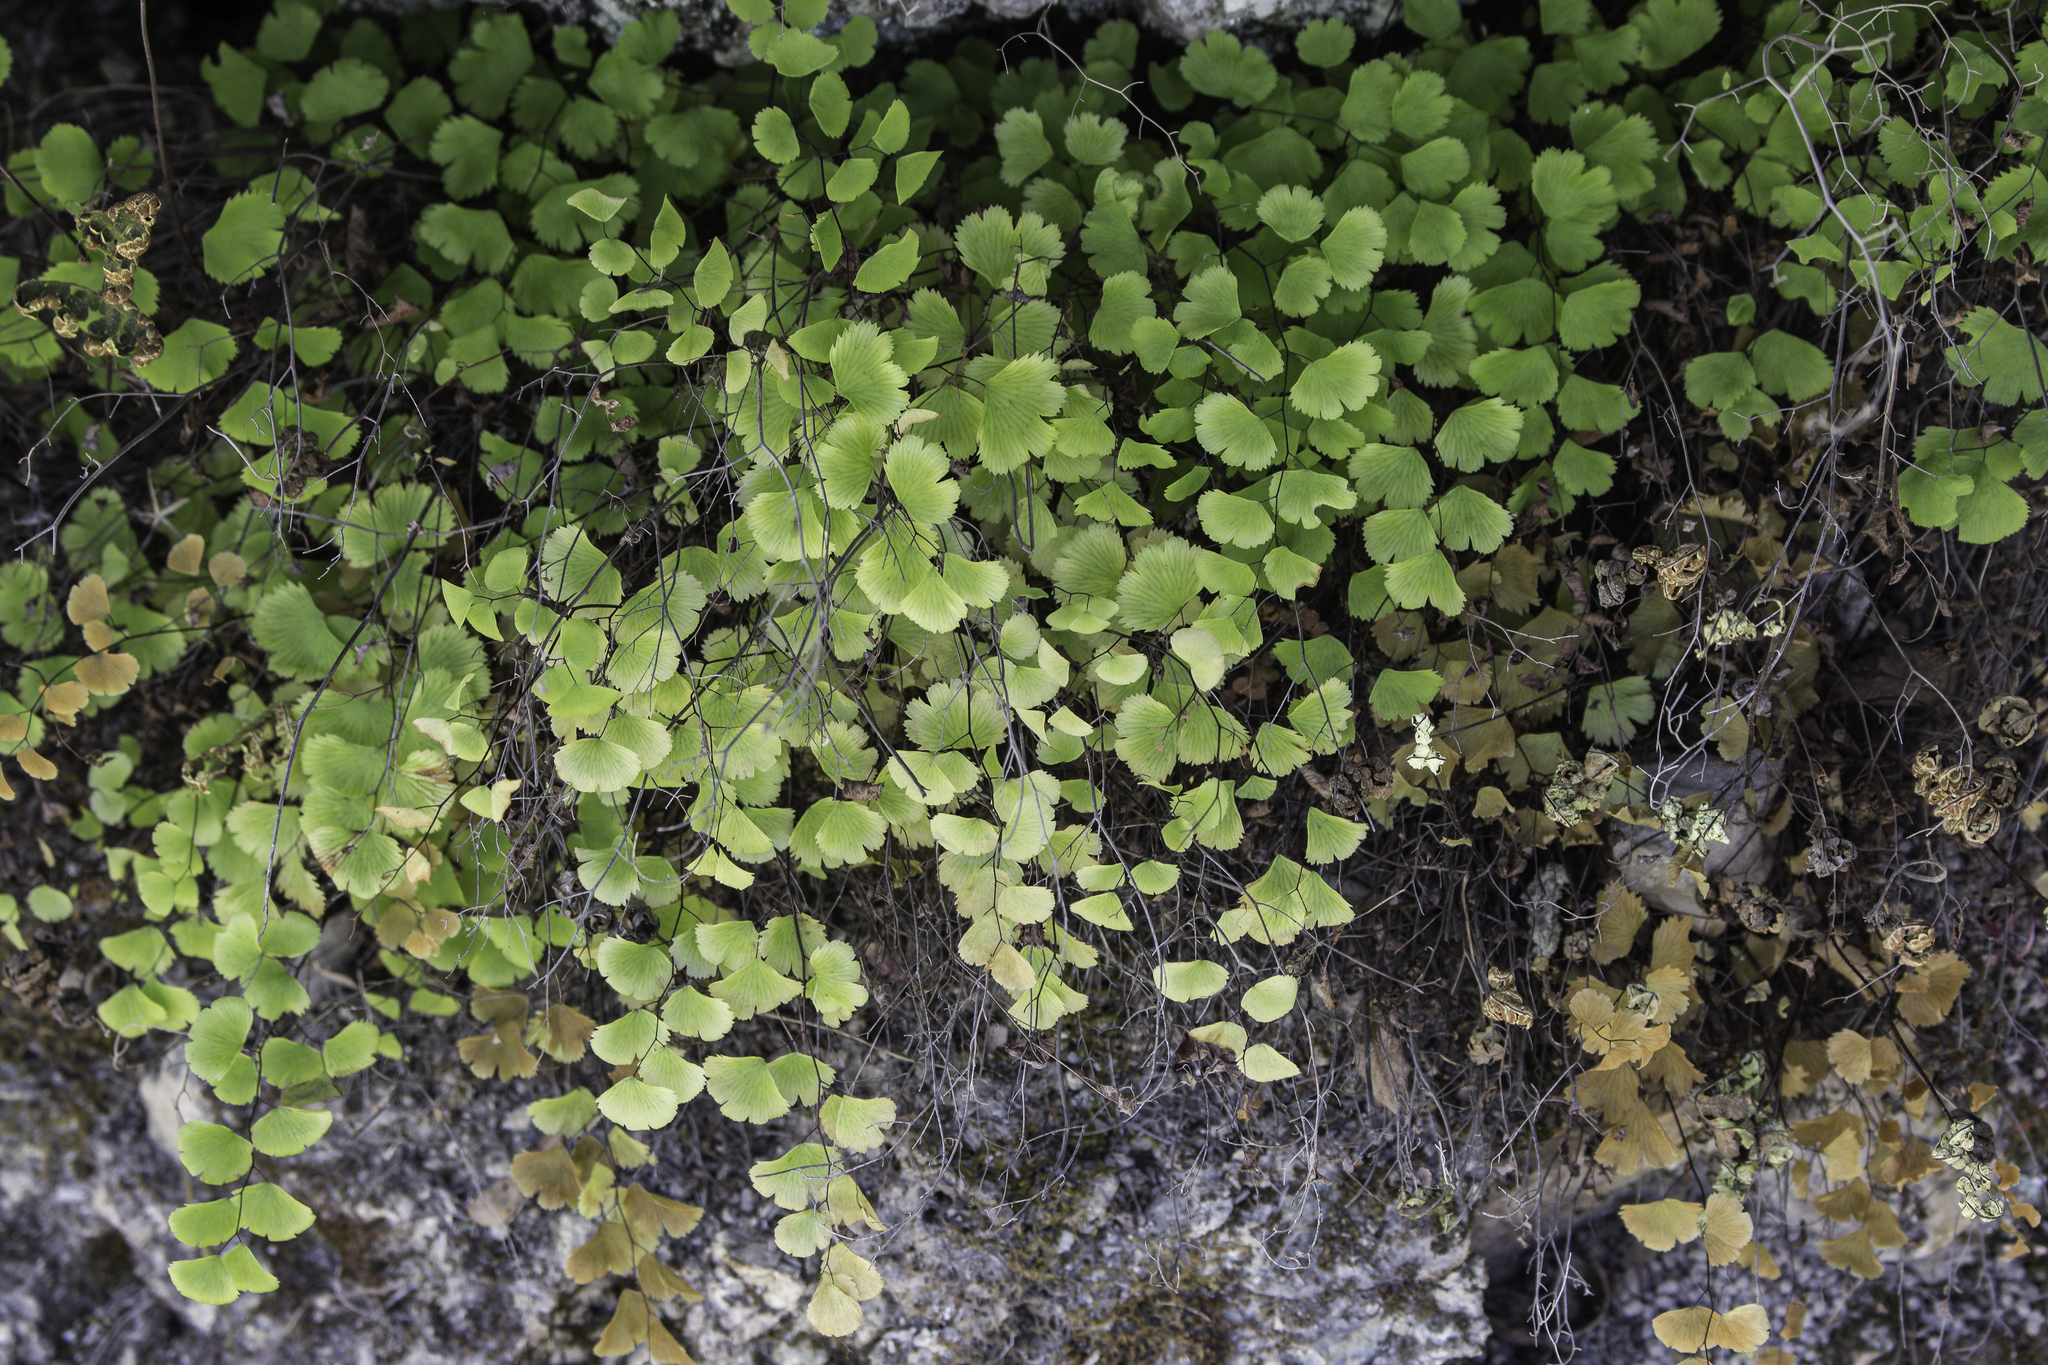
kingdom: Plantae
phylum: Tracheophyta
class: Polypodiopsida
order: Polypodiales
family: Pteridaceae
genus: Adiantum
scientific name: Adiantum jordanii
